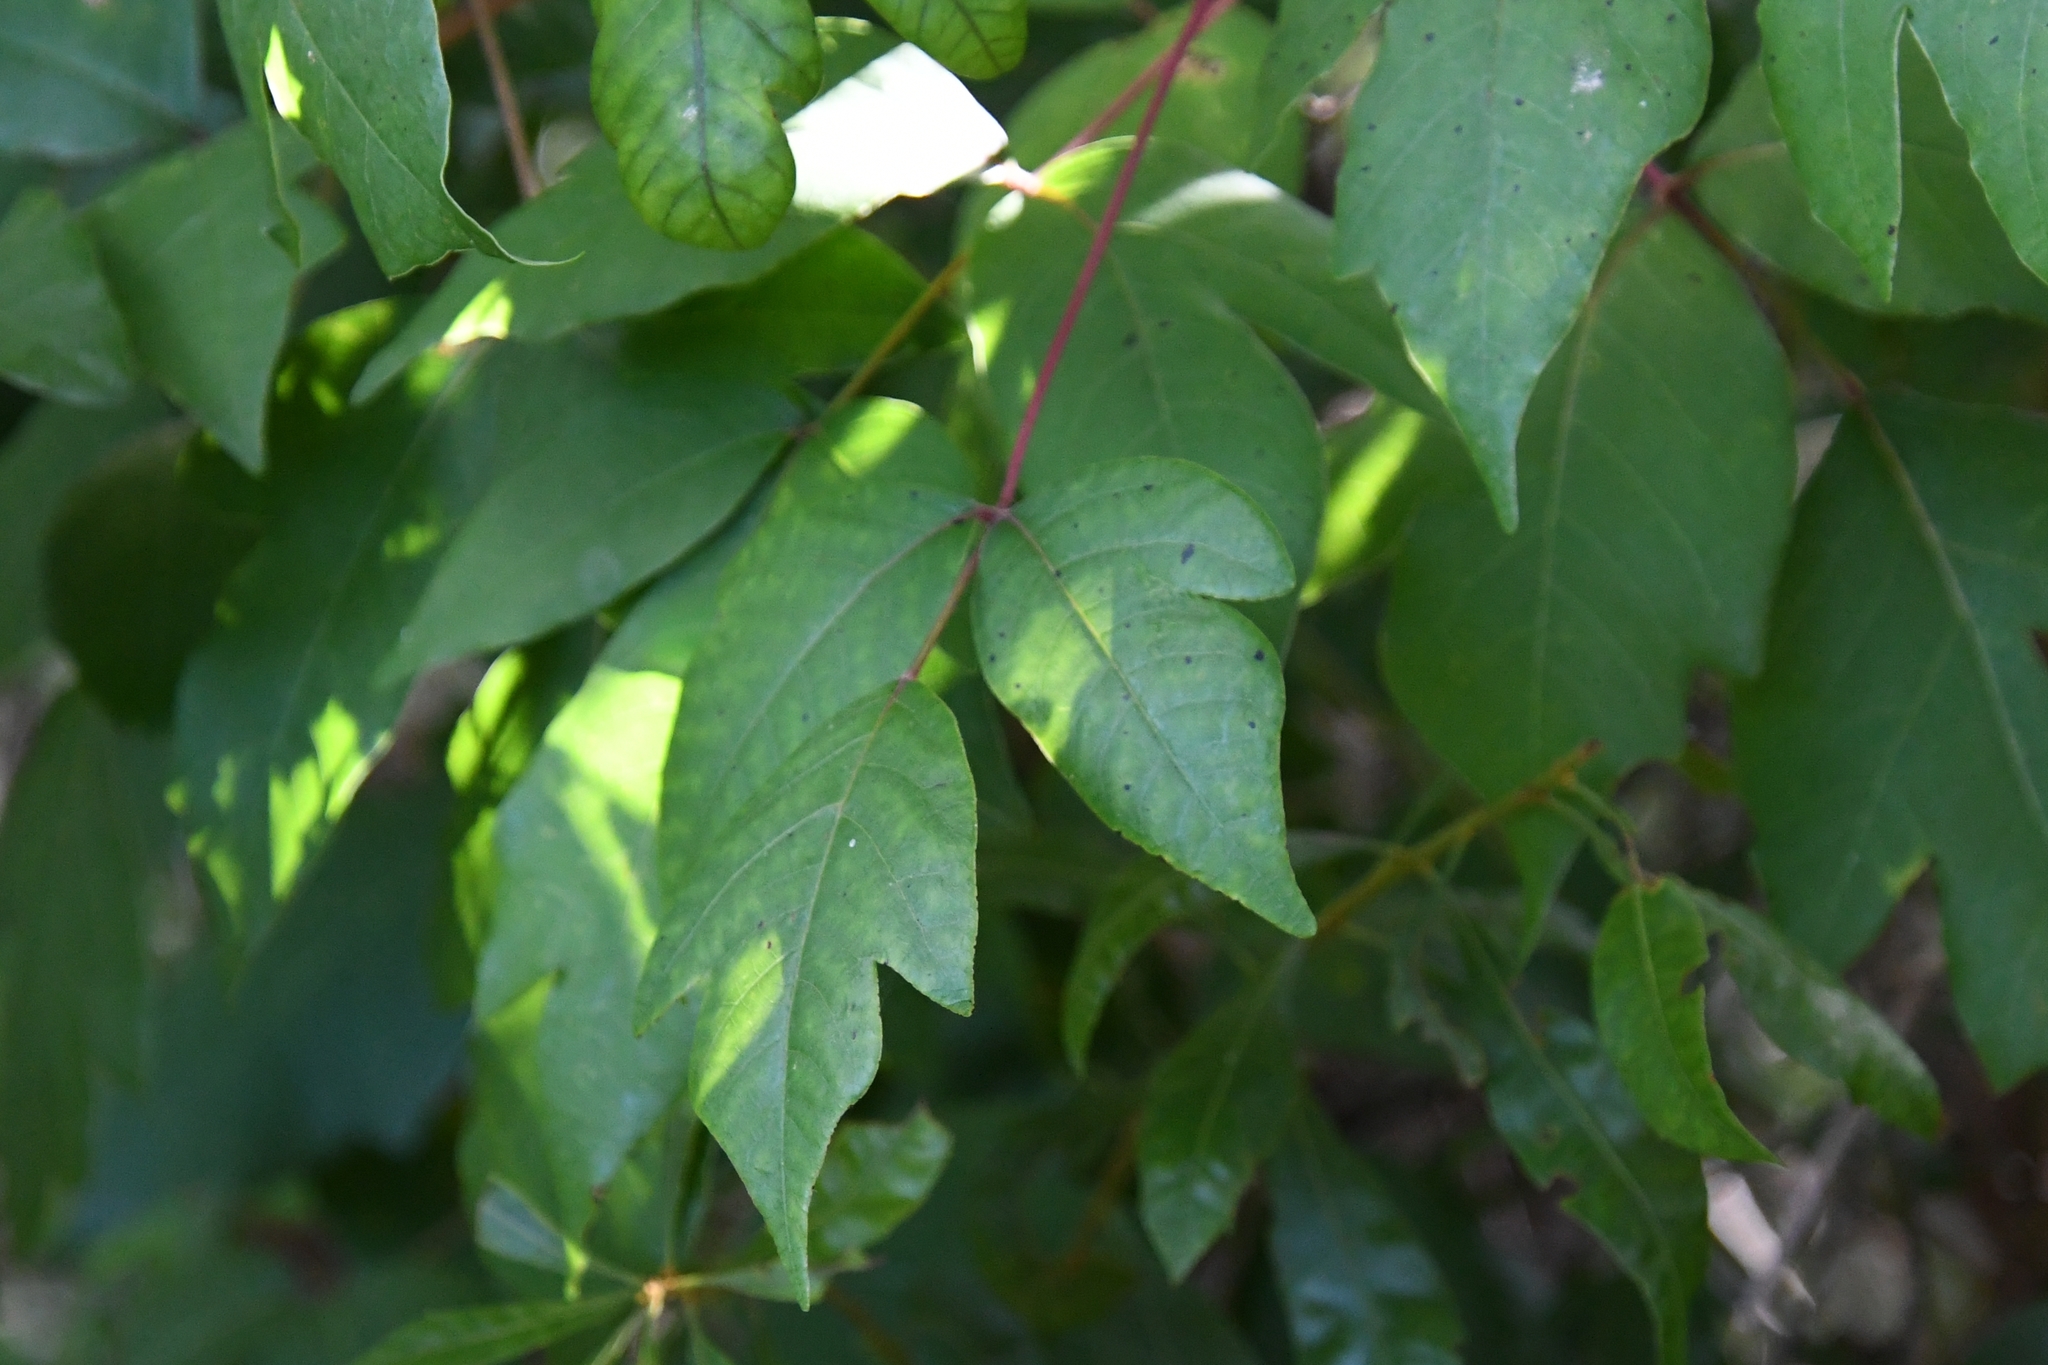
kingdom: Plantae
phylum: Tracheophyta
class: Magnoliopsida
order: Sapindales
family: Anacardiaceae
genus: Toxicodendron
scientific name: Toxicodendron radicans
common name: Poison ivy
